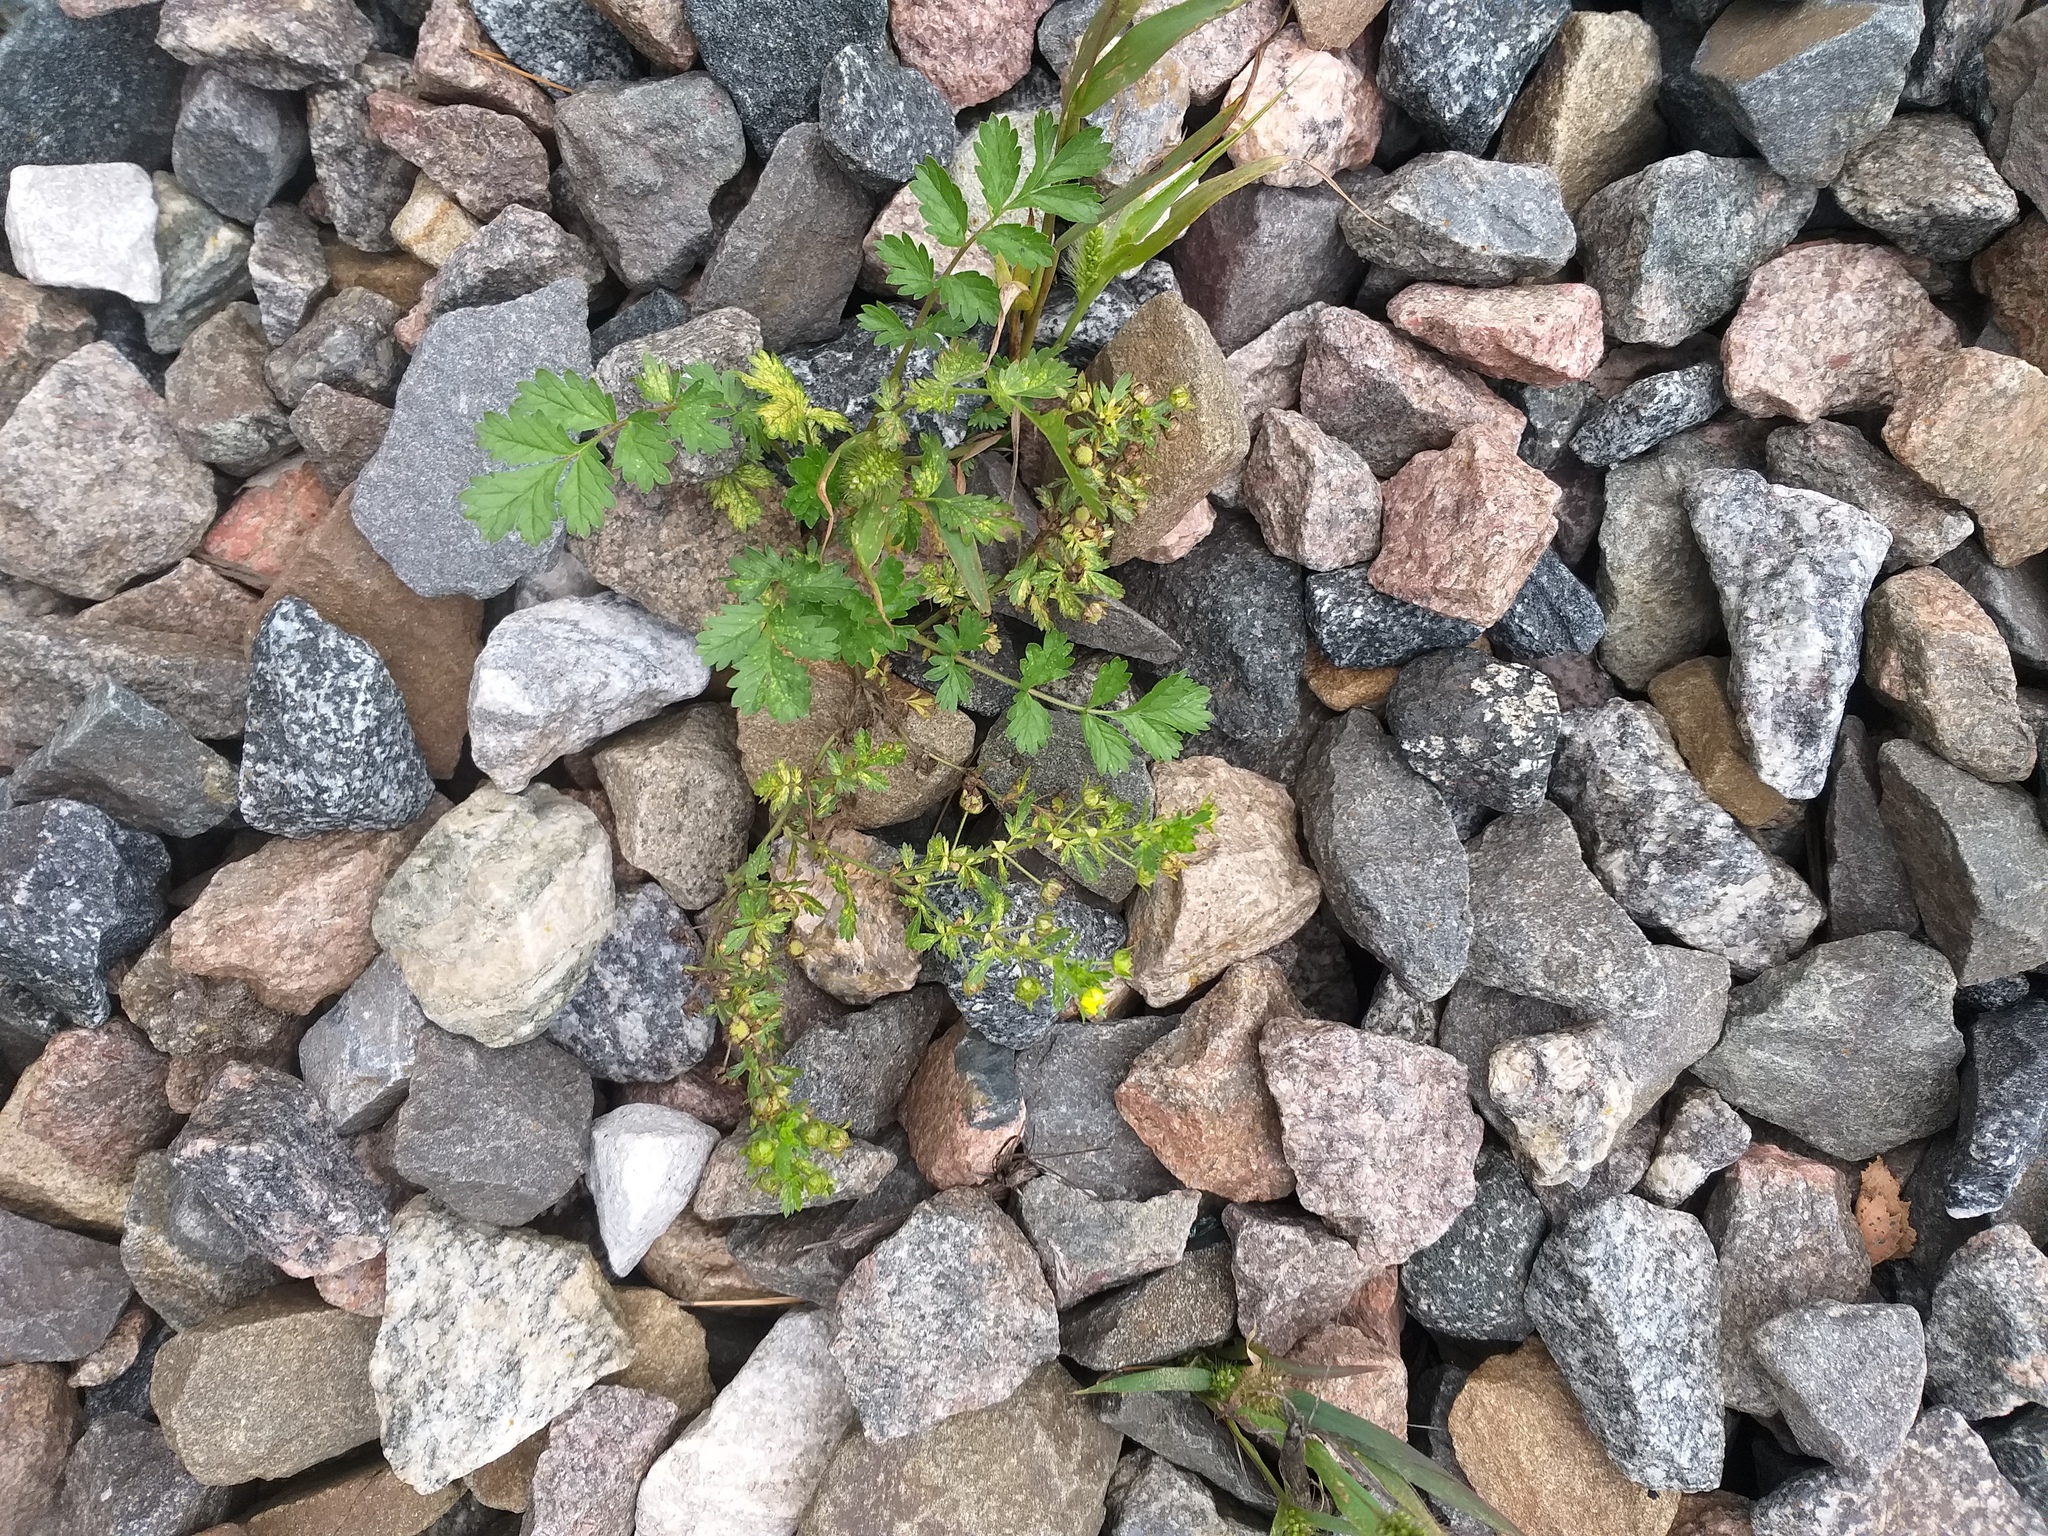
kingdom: Plantae
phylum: Tracheophyta
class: Magnoliopsida
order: Rosales
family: Rosaceae
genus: Potentilla
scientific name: Potentilla supina
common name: Prostrate cinquefoil
